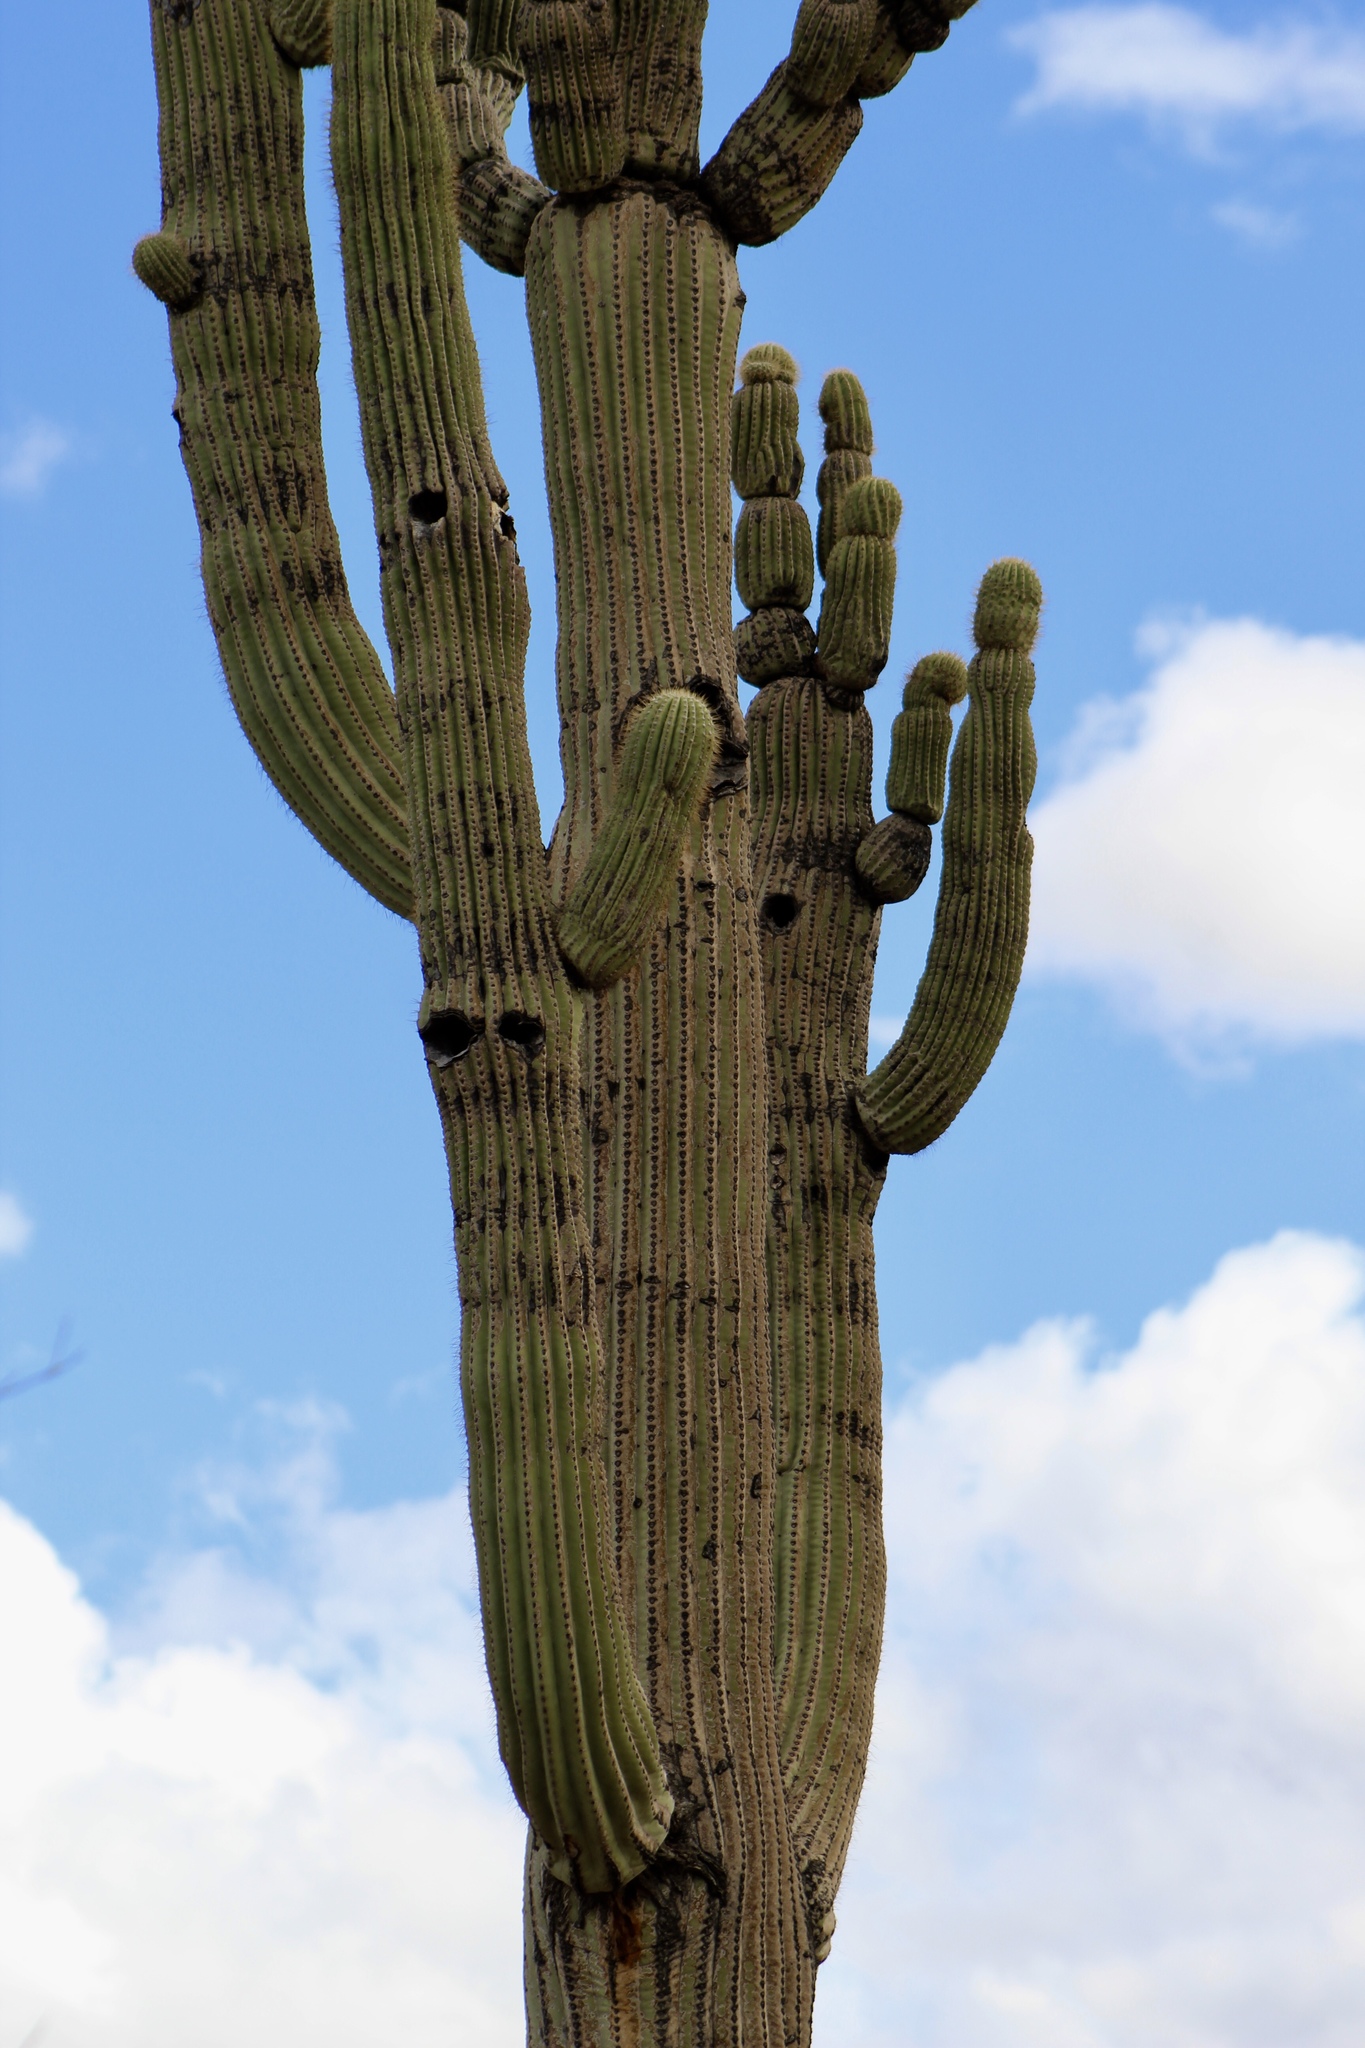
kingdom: Plantae
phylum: Tracheophyta
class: Magnoliopsida
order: Caryophyllales
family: Cactaceae
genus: Carnegiea
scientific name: Carnegiea gigantea
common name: Saguaro
